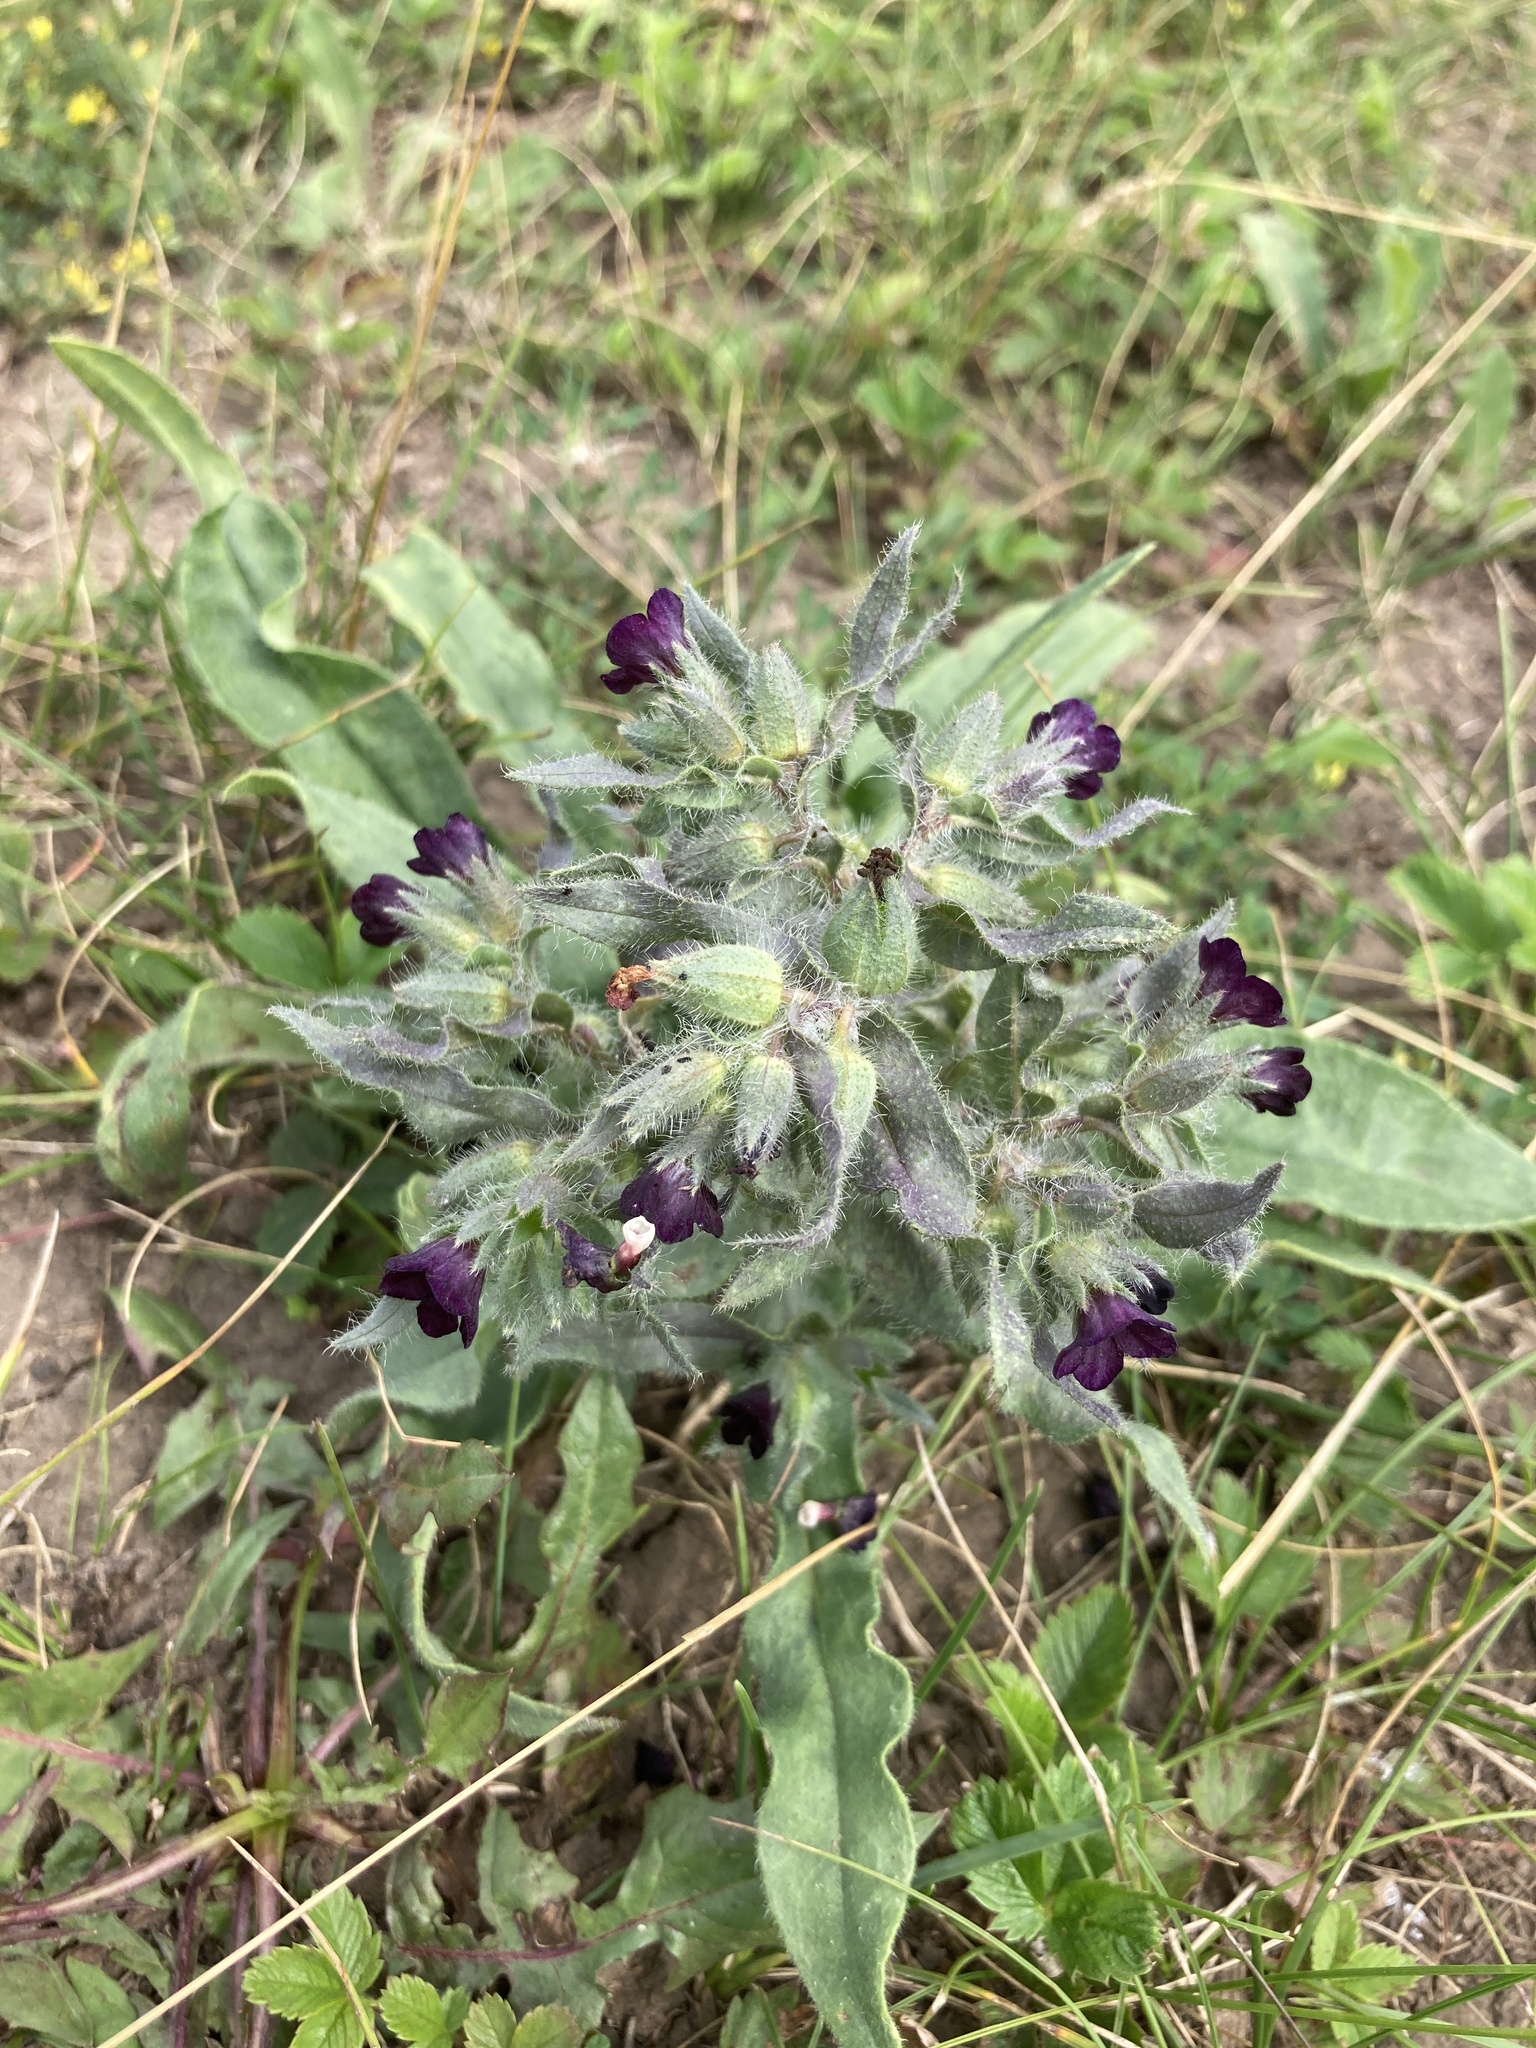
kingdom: Plantae
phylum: Tracheophyta
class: Magnoliopsida
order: Boraginales
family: Boraginaceae
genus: Nonea
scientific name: Nonea pulla
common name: Brown nonea
